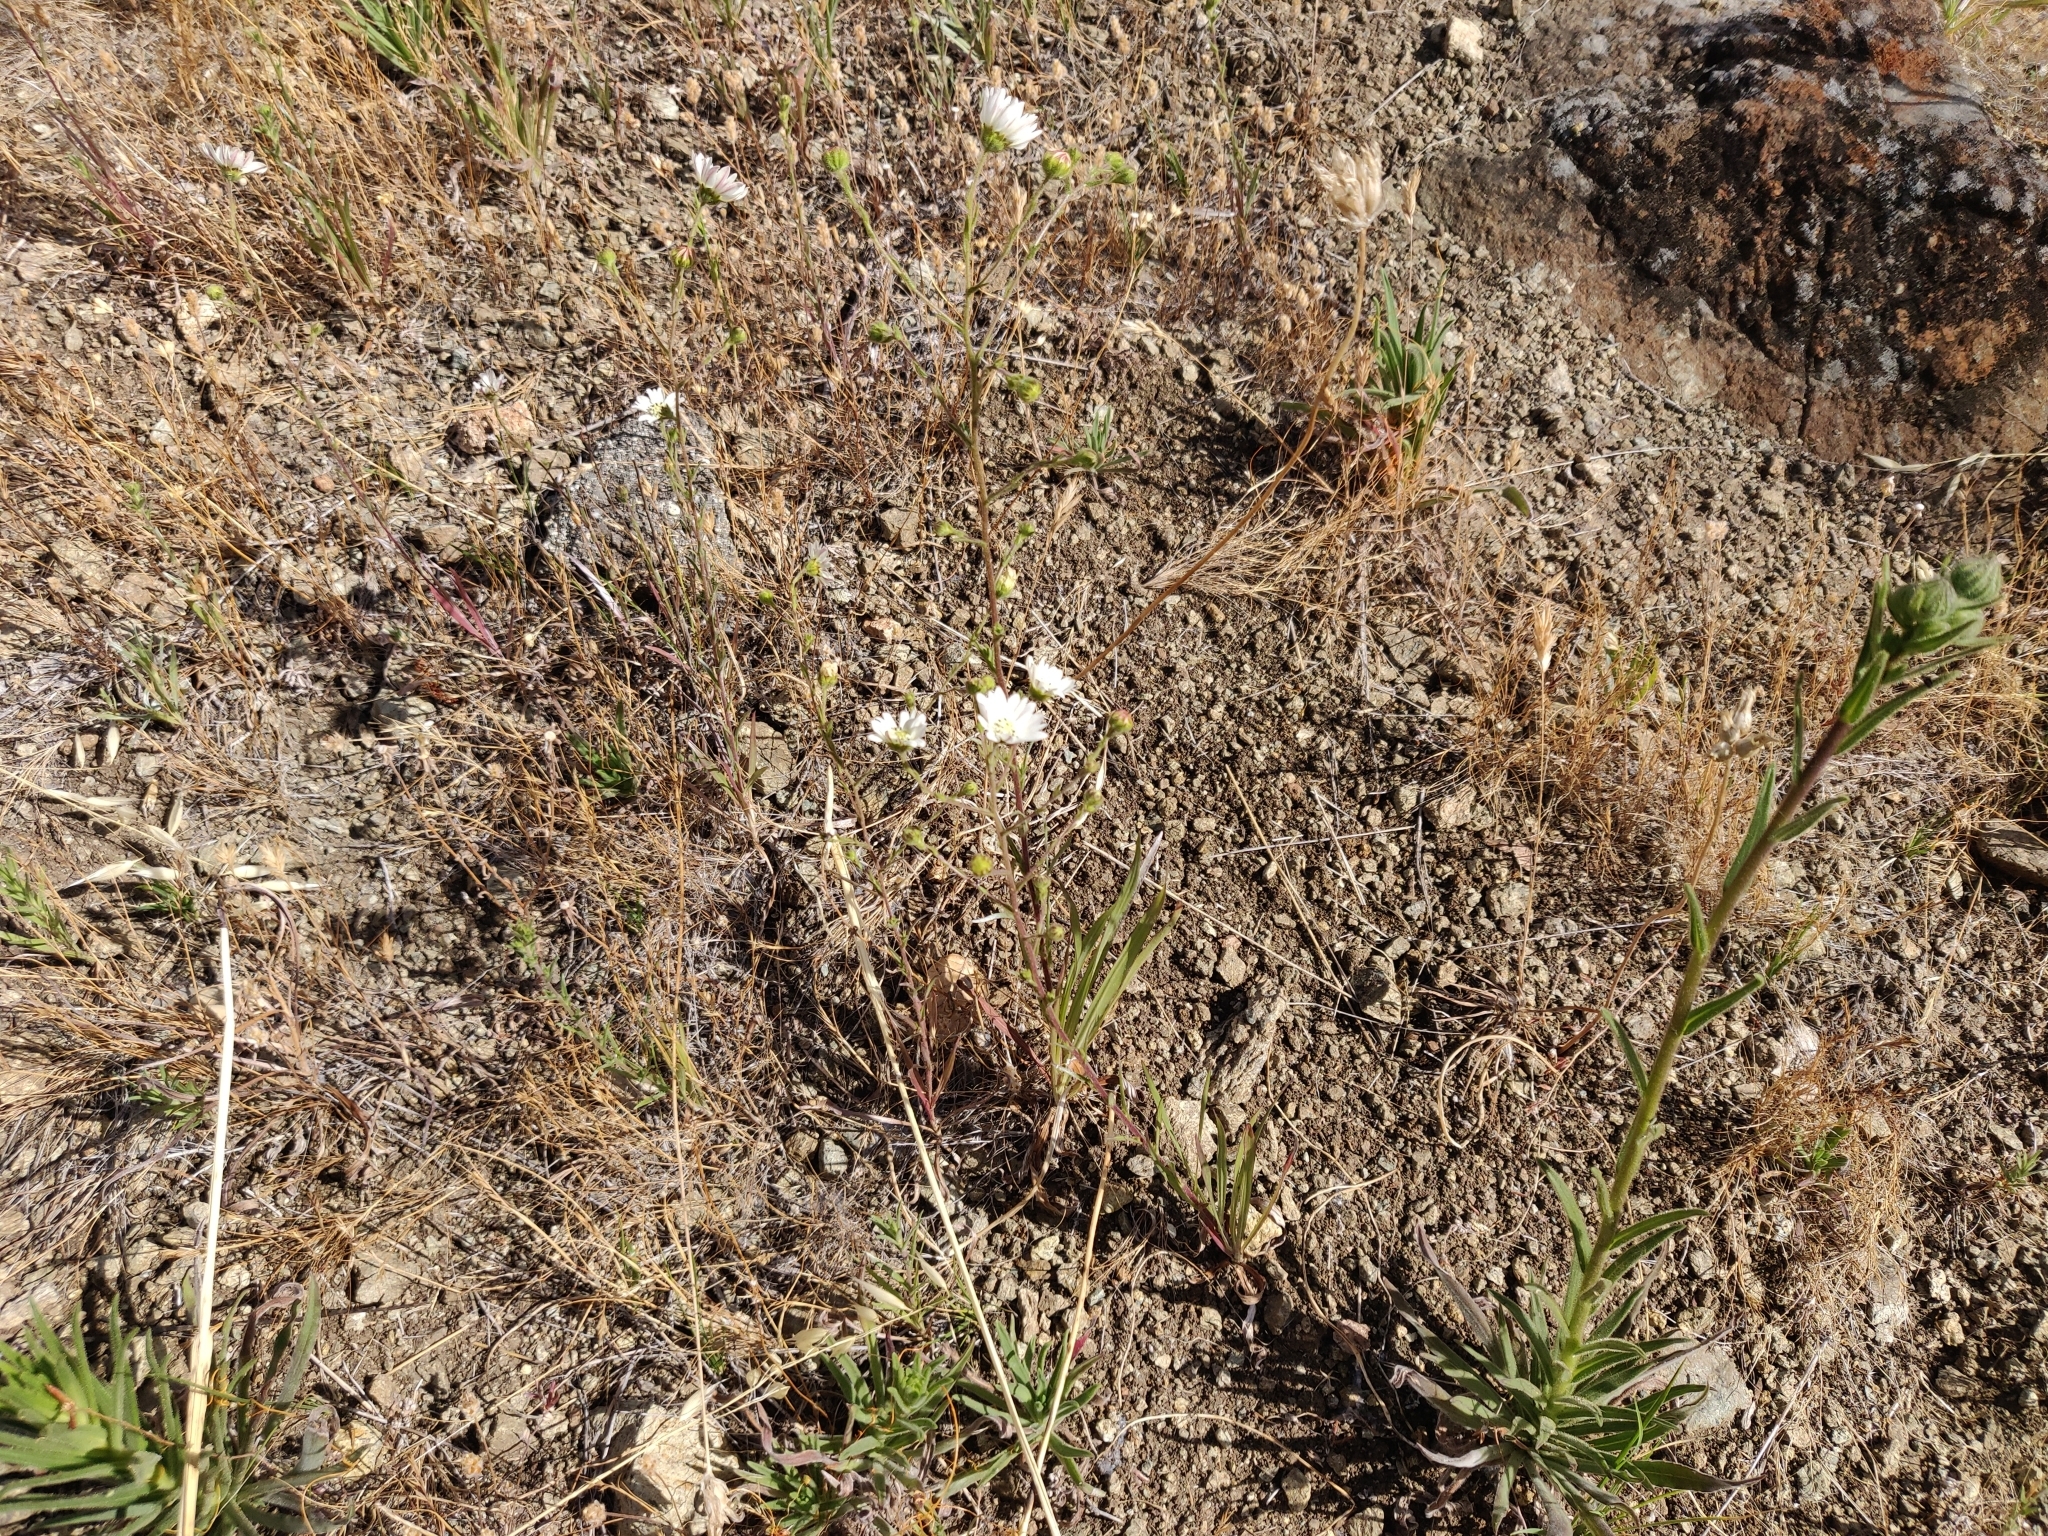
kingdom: Plantae
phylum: Tracheophyta
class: Magnoliopsida
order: Asterales
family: Asteraceae
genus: Hemizonia
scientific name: Hemizonia congesta
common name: Hayfield tarweed
